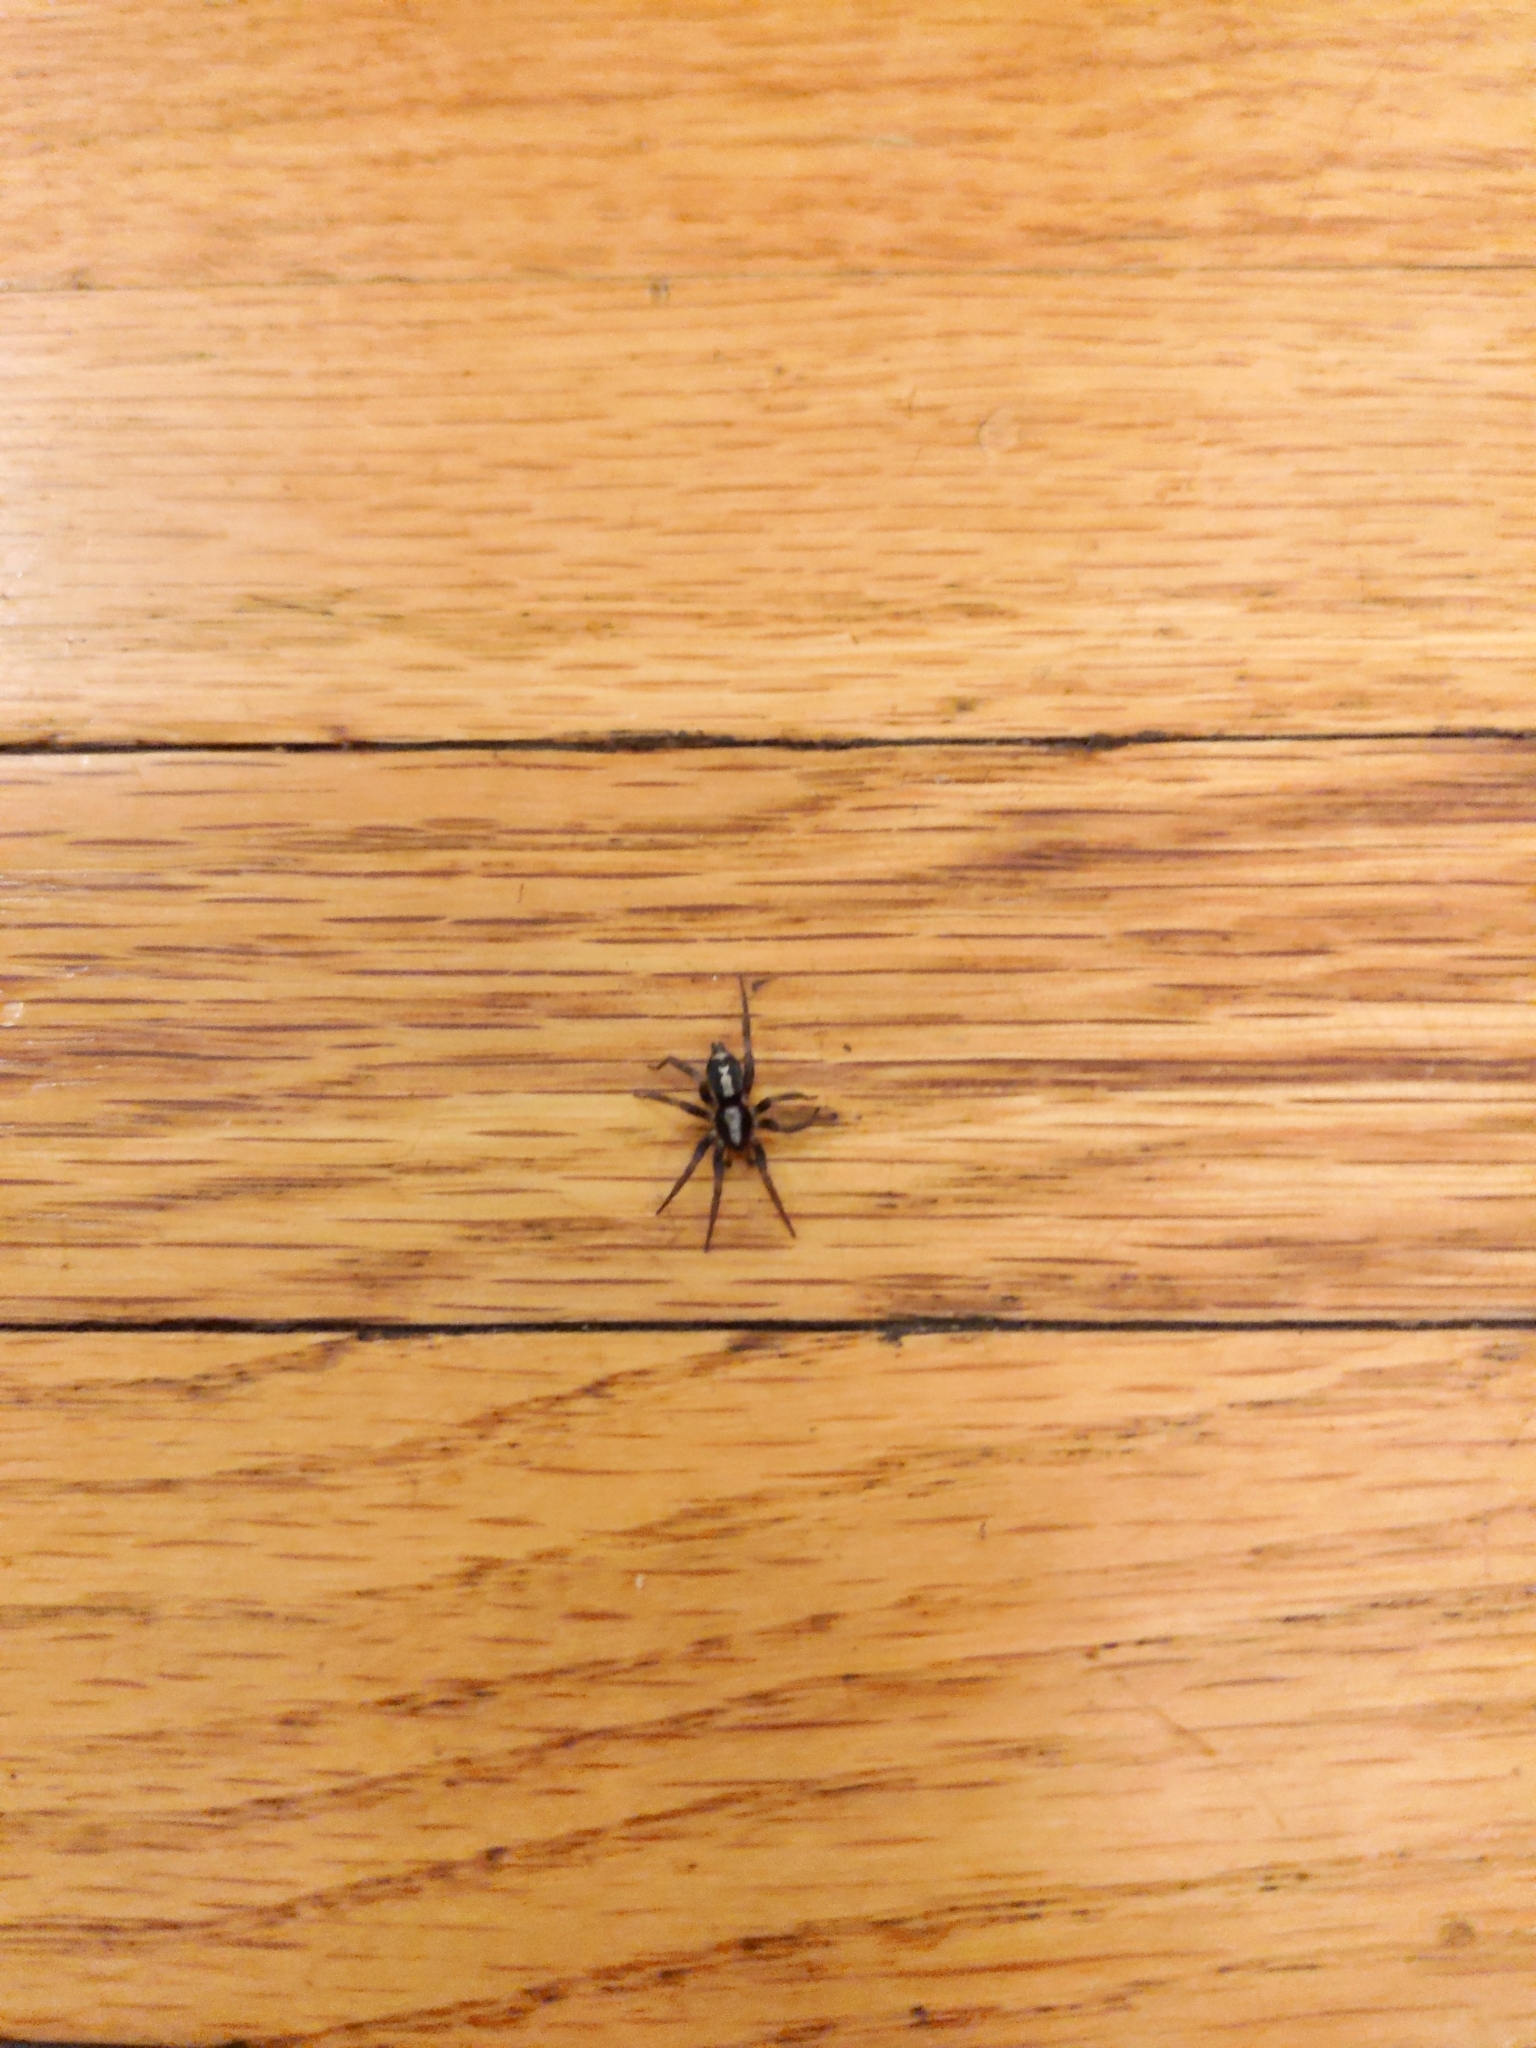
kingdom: Animalia
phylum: Arthropoda
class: Arachnida
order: Araneae
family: Gnaphosidae
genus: Herpyllus
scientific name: Herpyllus ecclesiasticus
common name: Eastern parson spider
